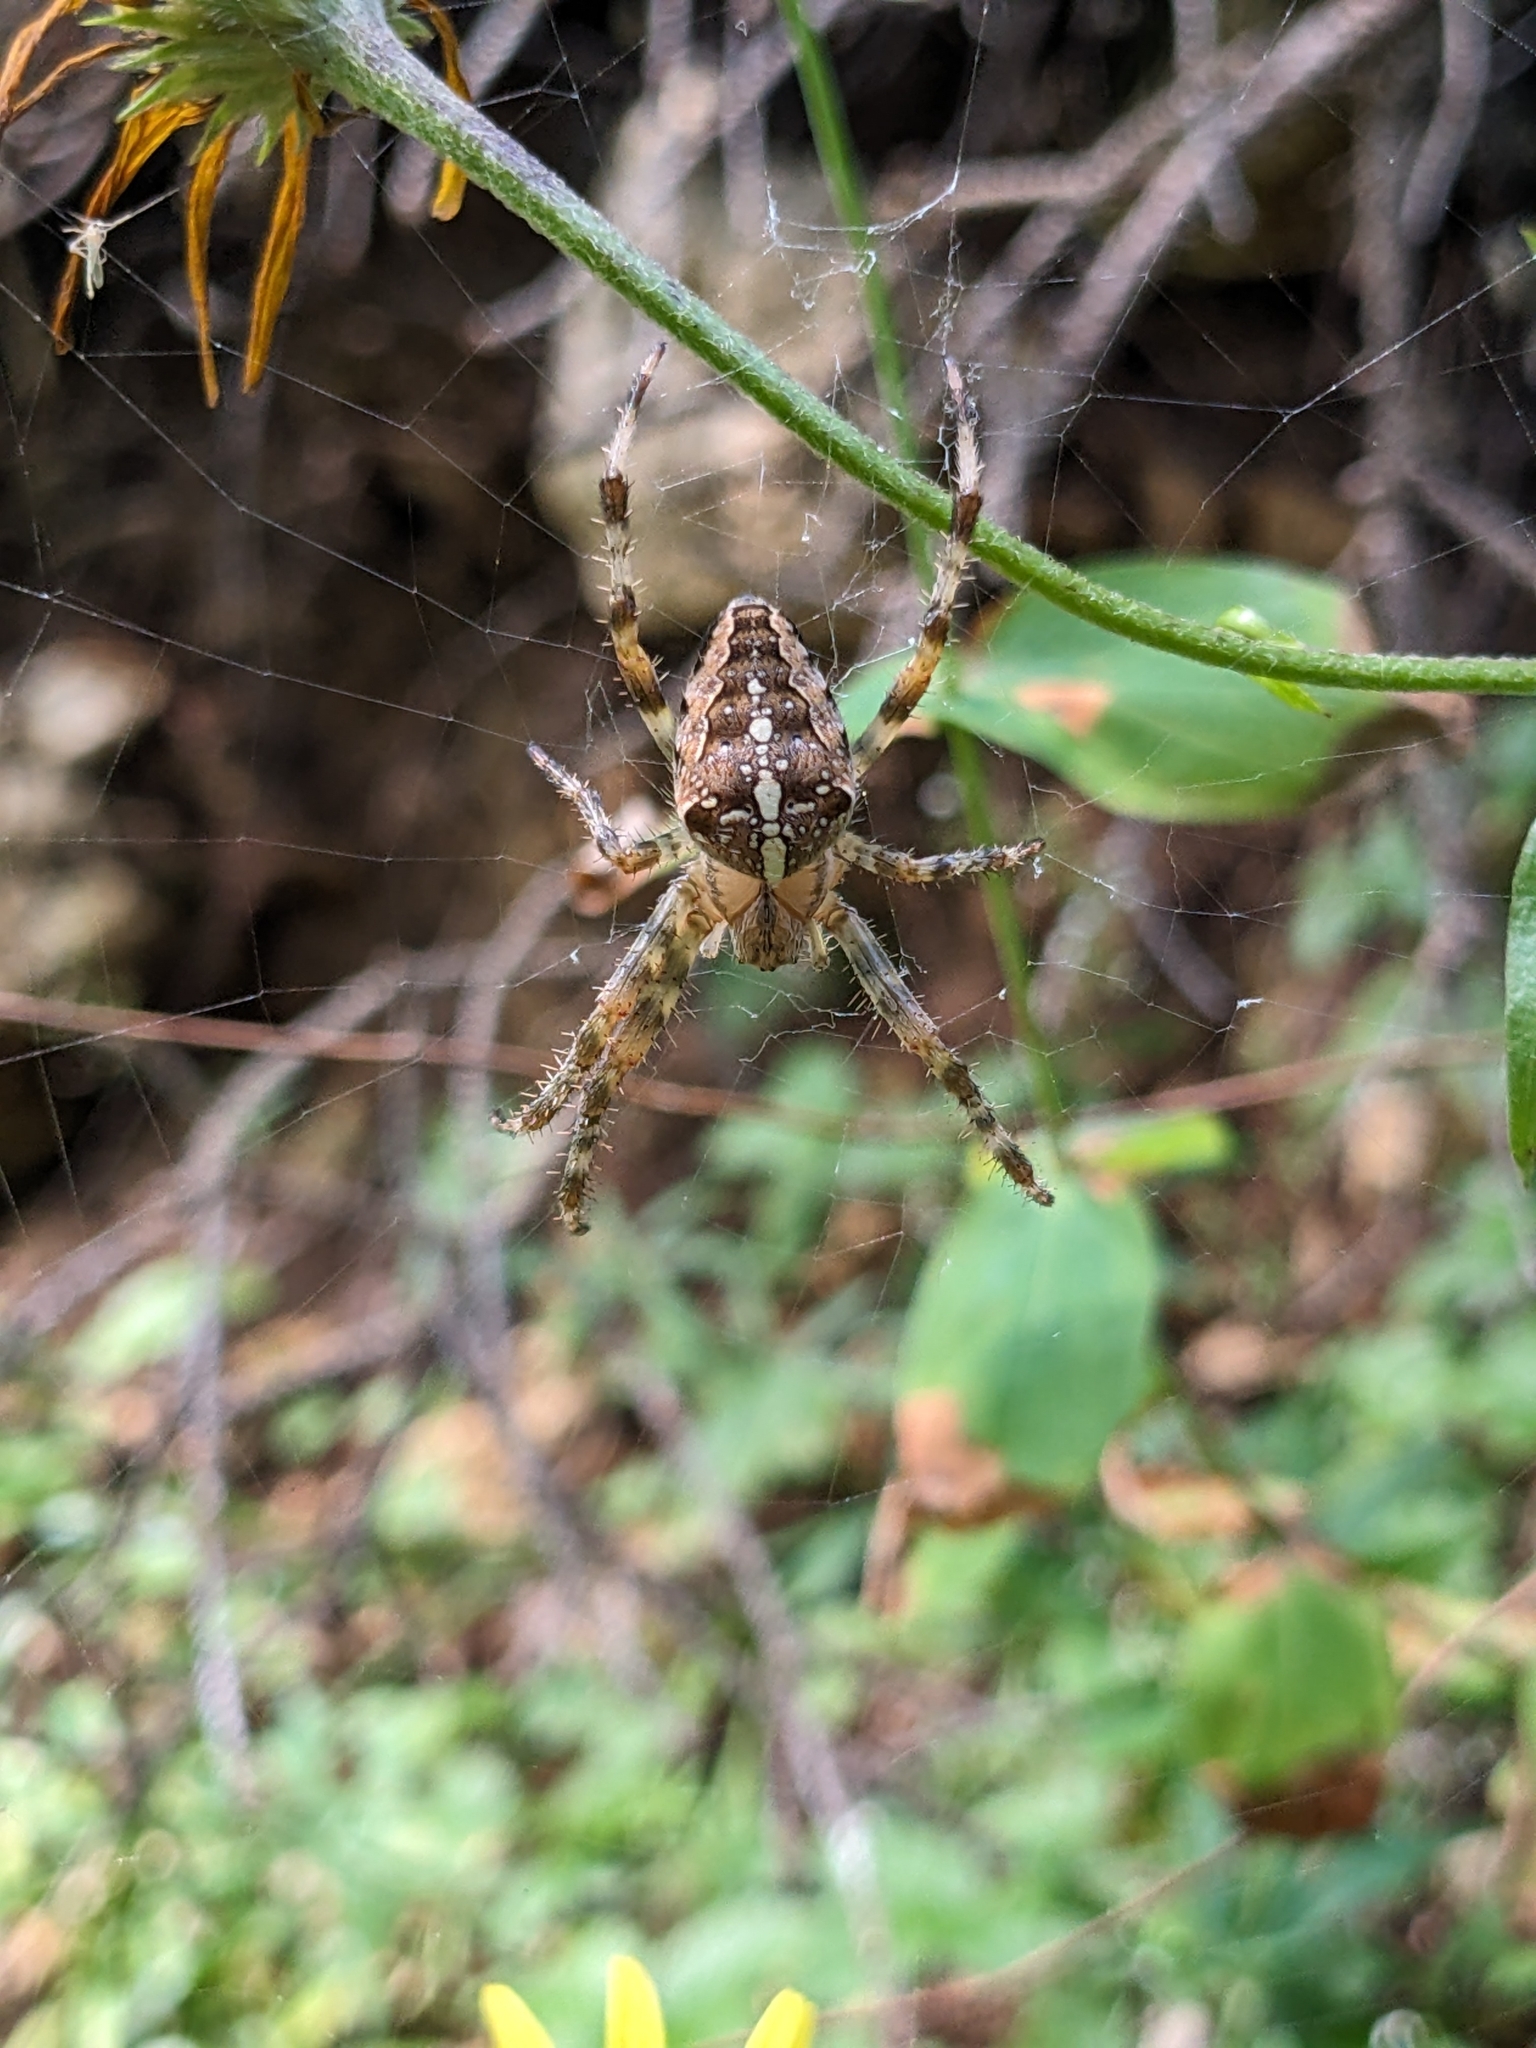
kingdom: Animalia
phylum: Arthropoda
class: Arachnida
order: Araneae
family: Araneidae
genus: Araneus
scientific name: Araneus diadematus
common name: Cross orbweaver
